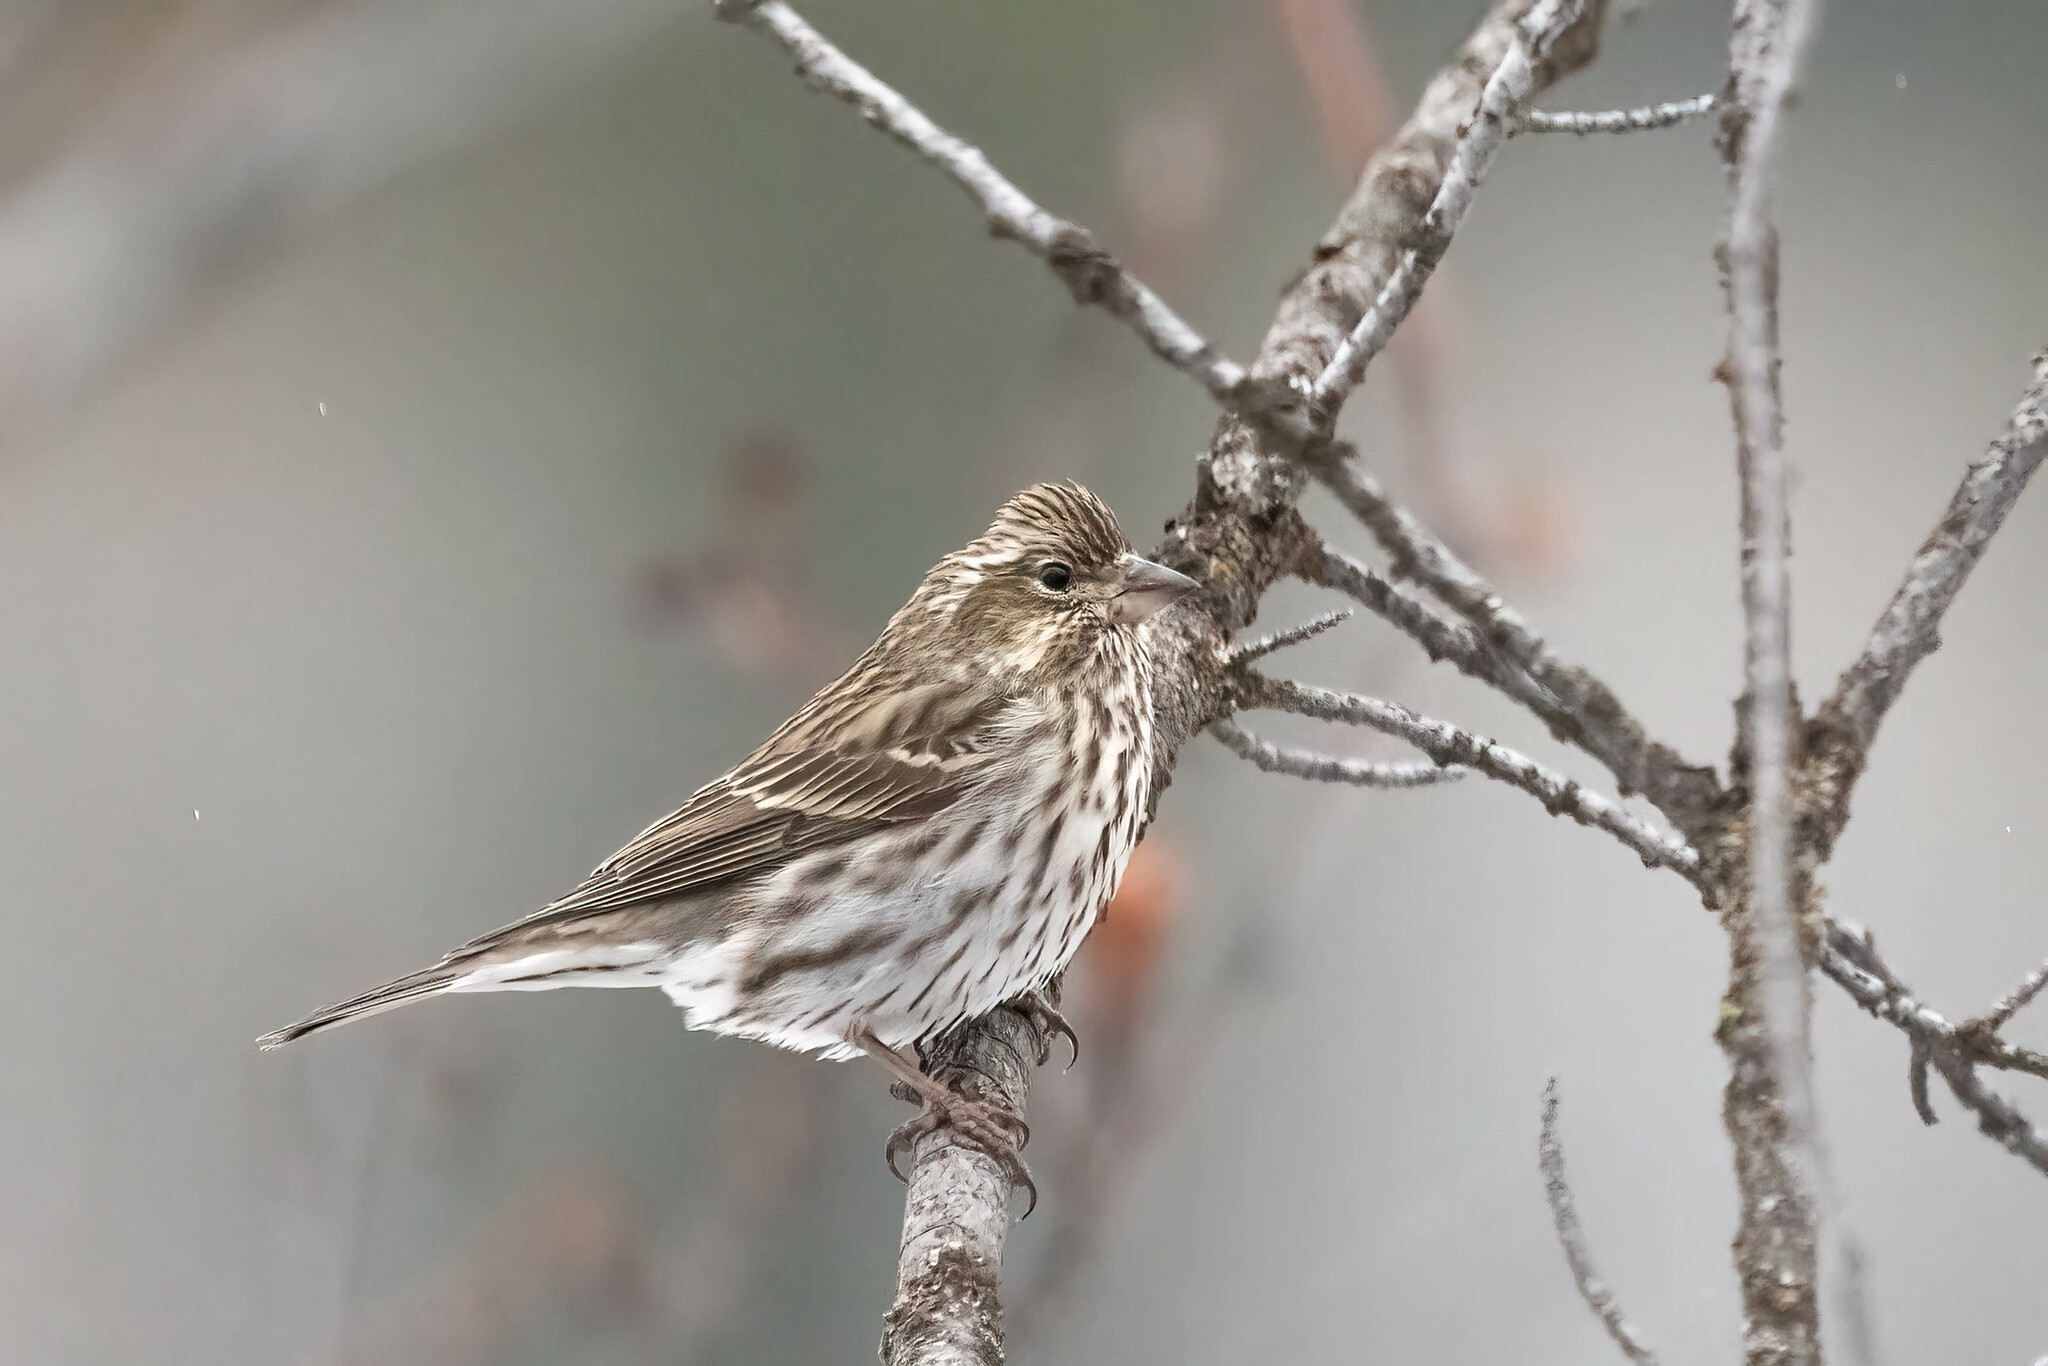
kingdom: Animalia
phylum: Chordata
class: Aves
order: Passeriformes
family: Fringillidae
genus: Haemorhous
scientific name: Haemorhous cassinii
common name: Cassin's finch
